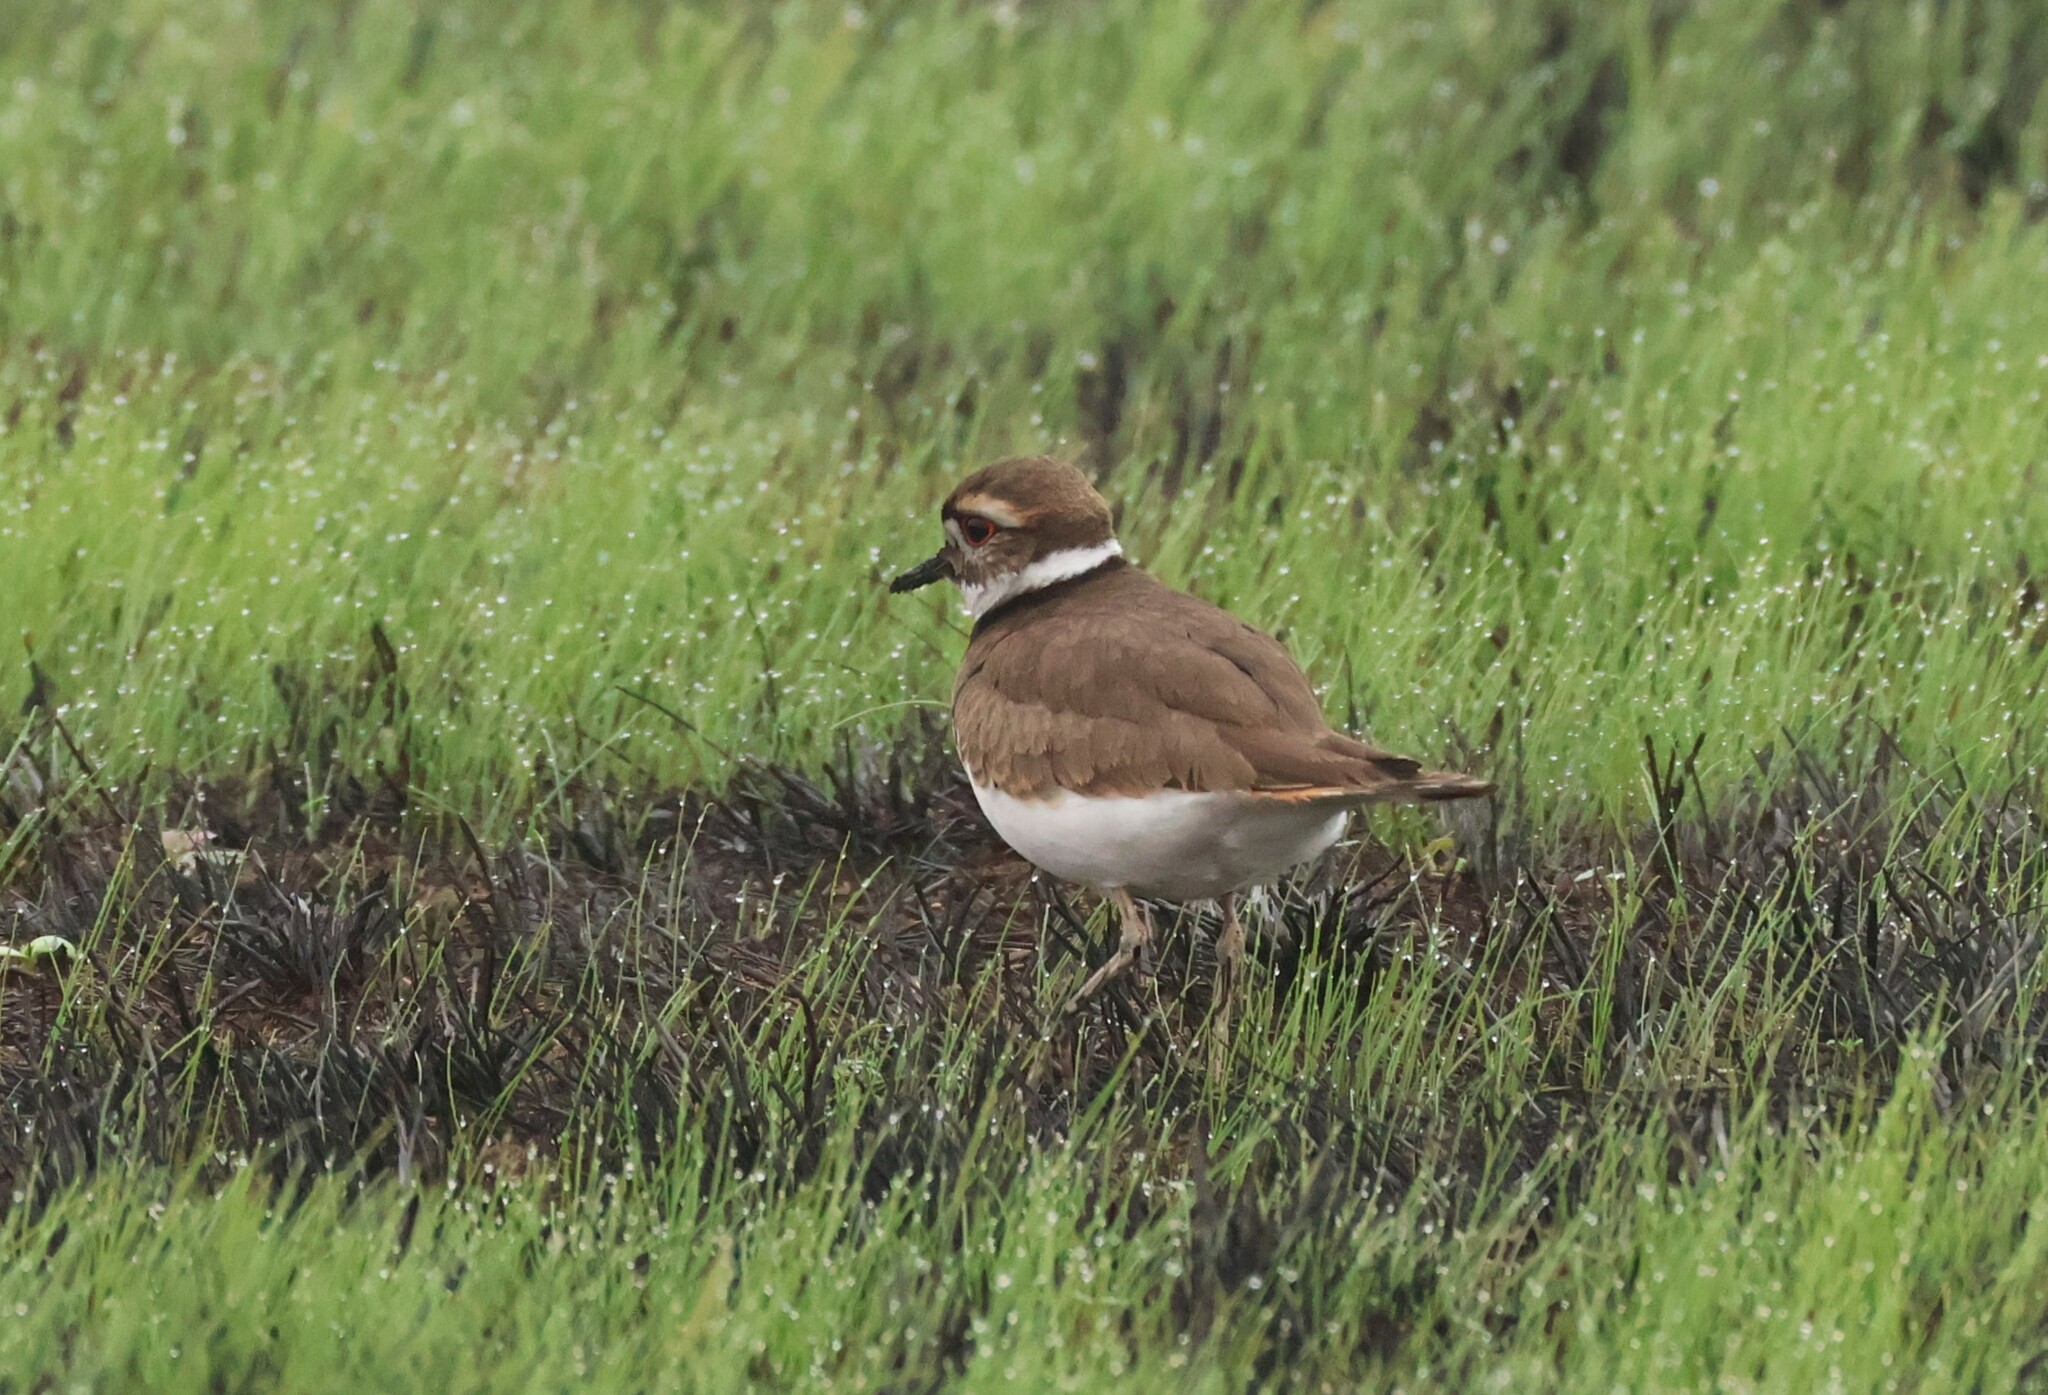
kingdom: Animalia
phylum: Chordata
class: Aves
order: Charadriiformes
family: Charadriidae
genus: Charadrius
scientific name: Charadrius vociferus
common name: Killdeer
